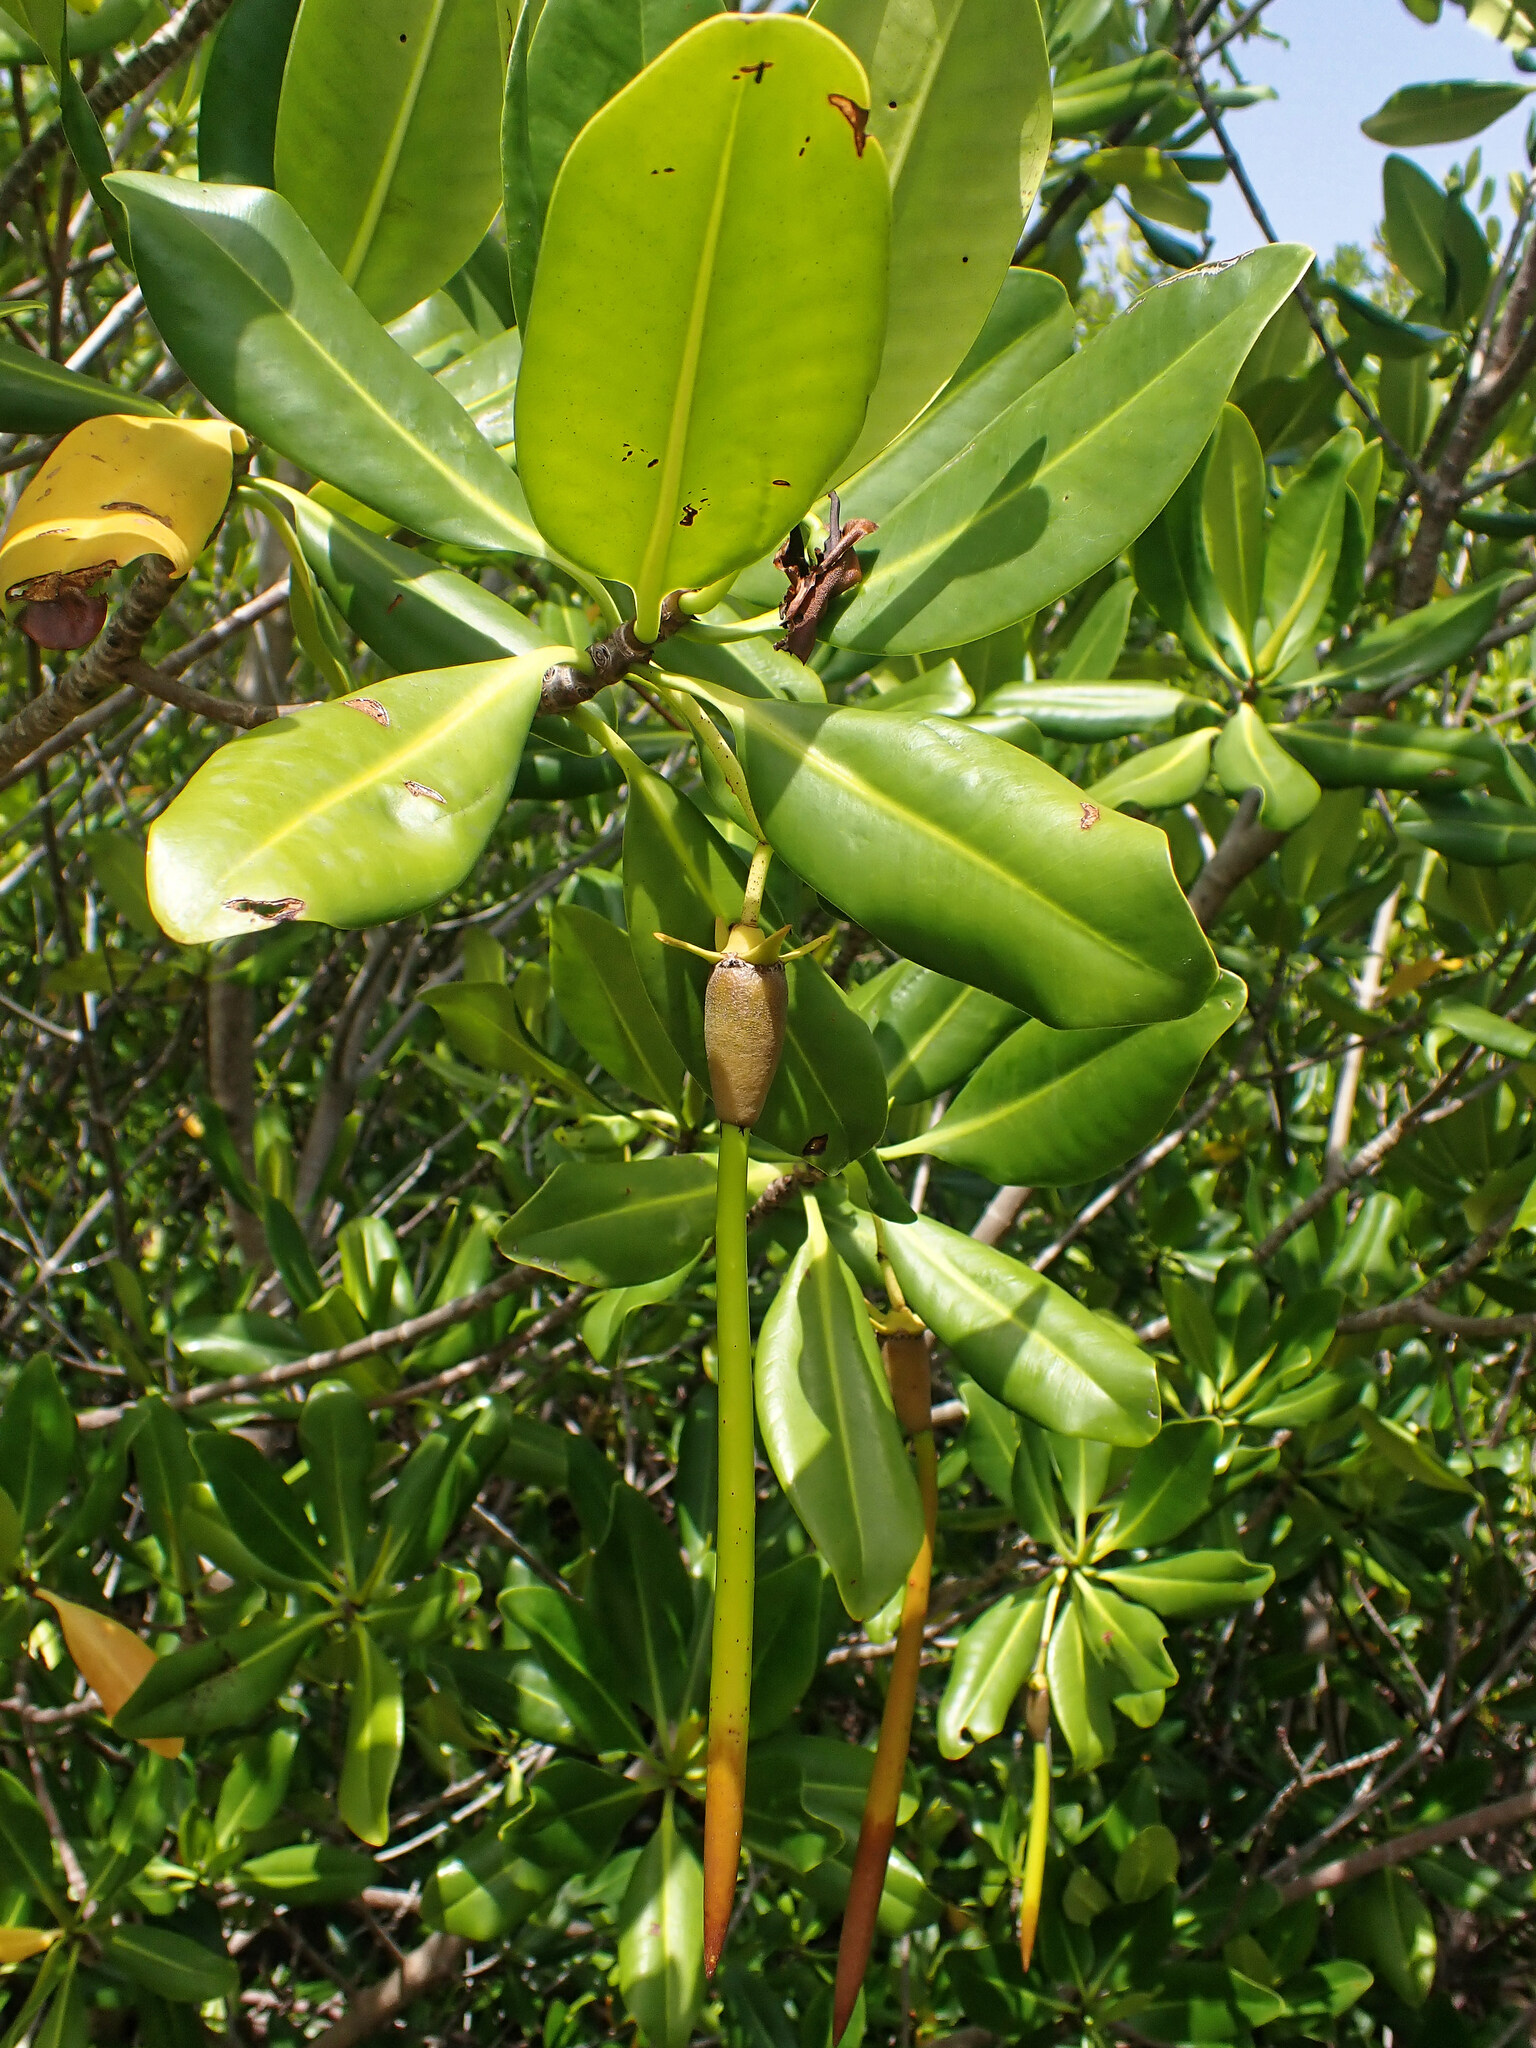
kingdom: Plantae
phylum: Tracheophyta
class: Magnoliopsida
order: Malpighiales
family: Rhizophoraceae
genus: Rhizophora
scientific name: Rhizophora mangle
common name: Red mangrove
